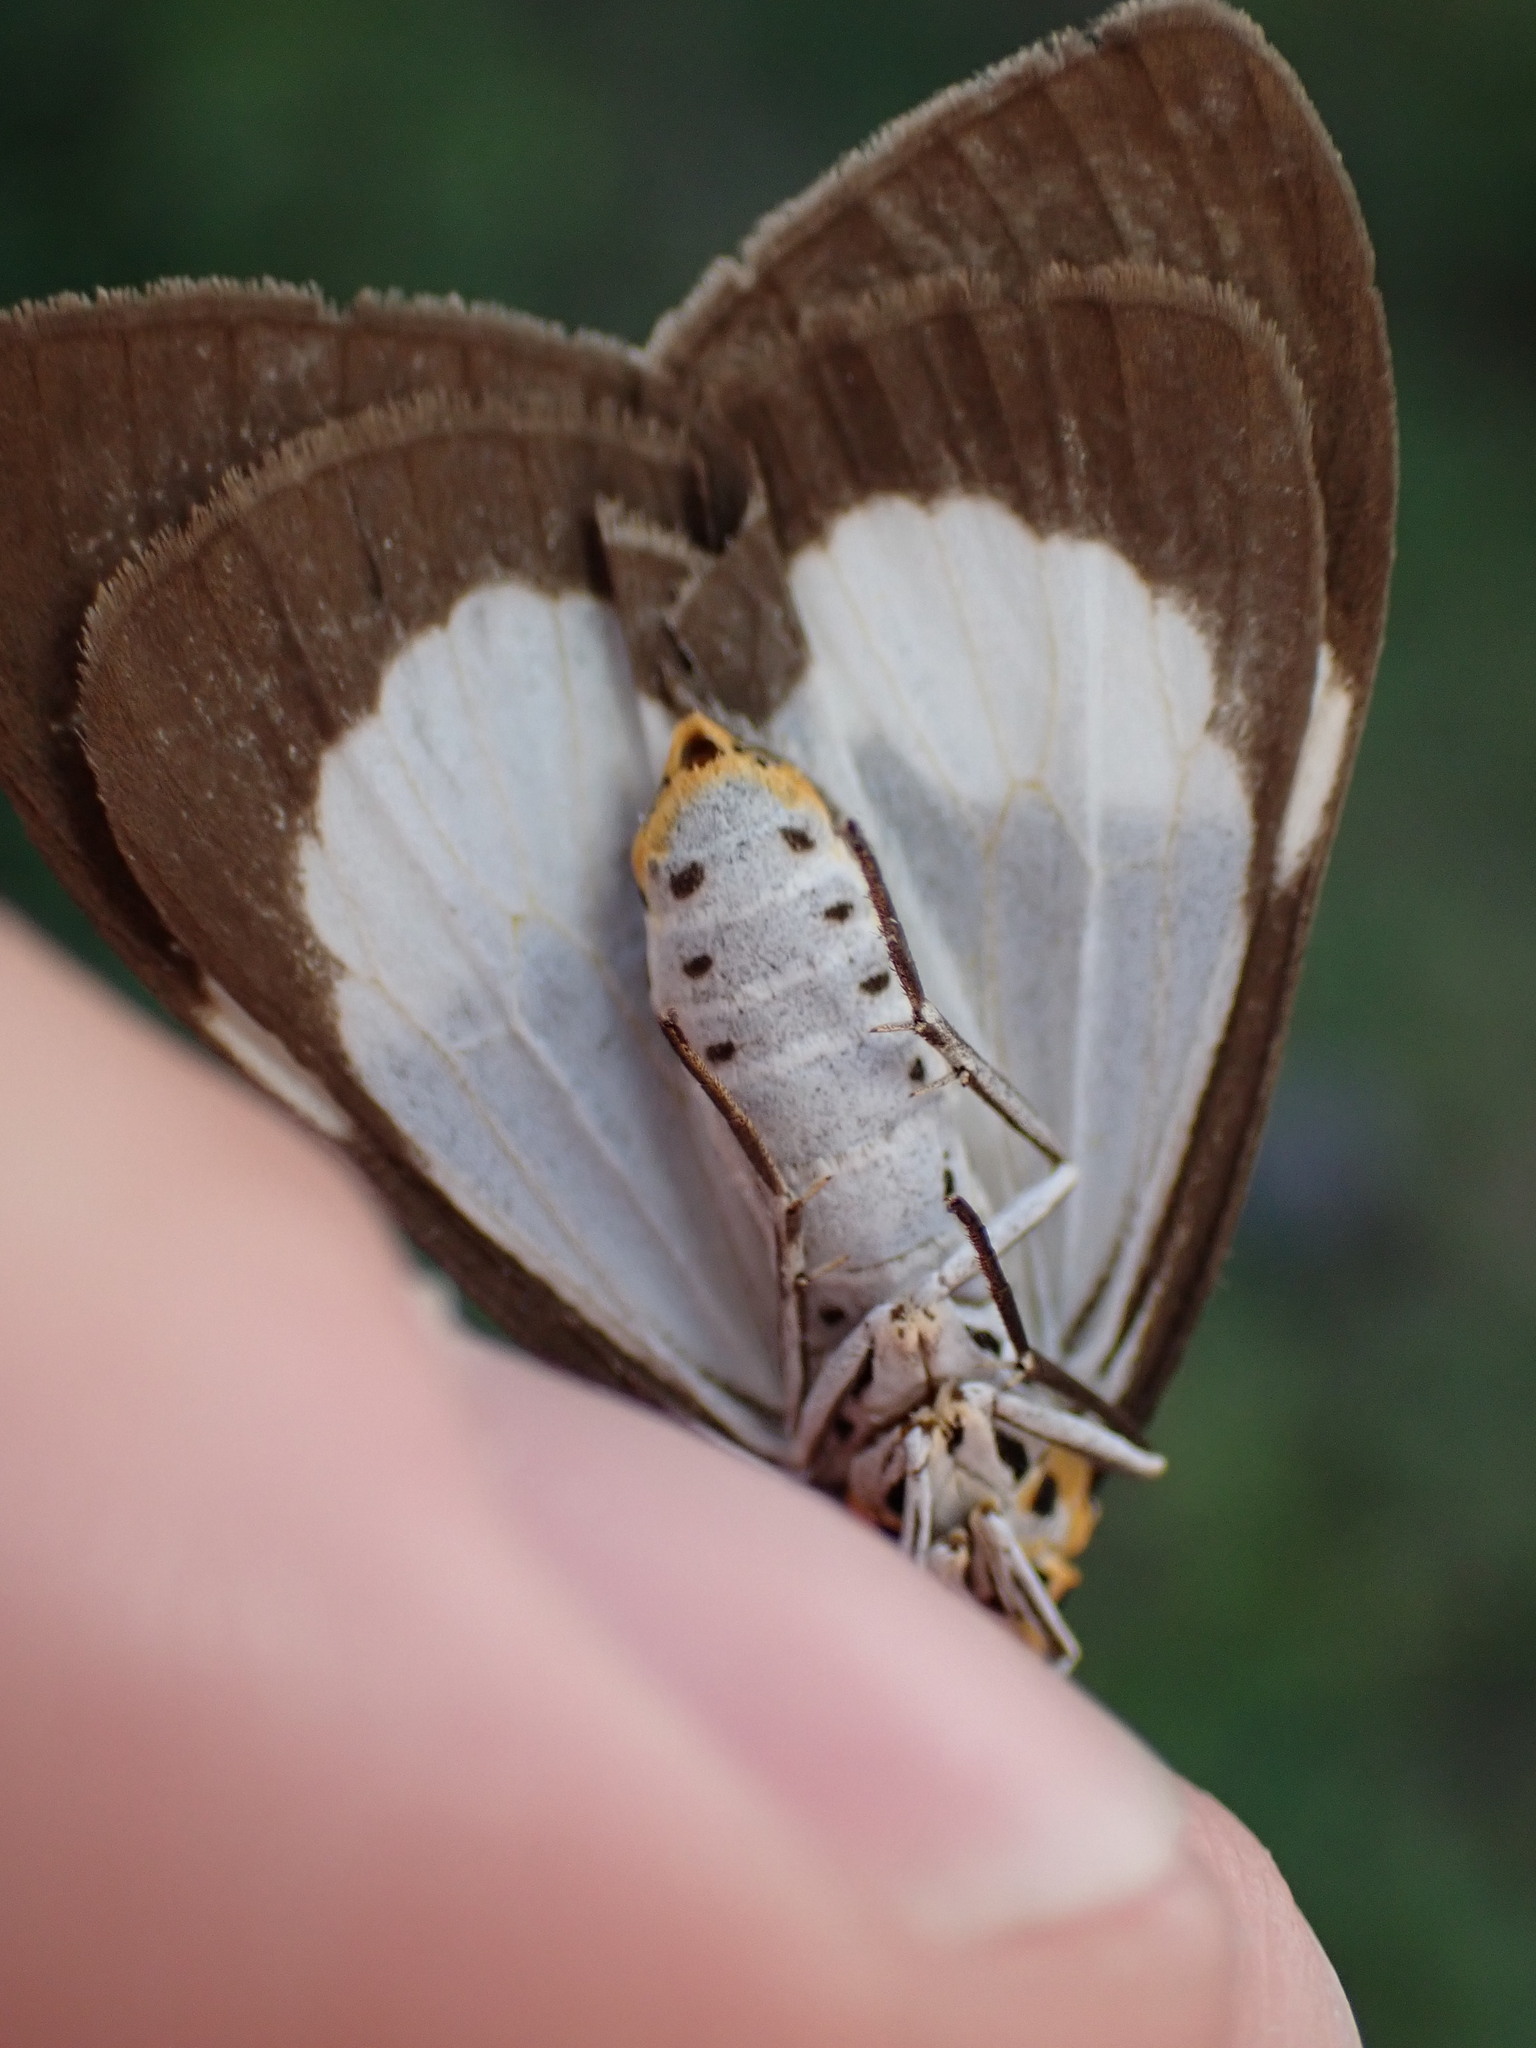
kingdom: Animalia
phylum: Arthropoda
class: Insecta
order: Lepidoptera
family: Erebidae
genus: Nyctemera
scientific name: Nyctemera baulus
